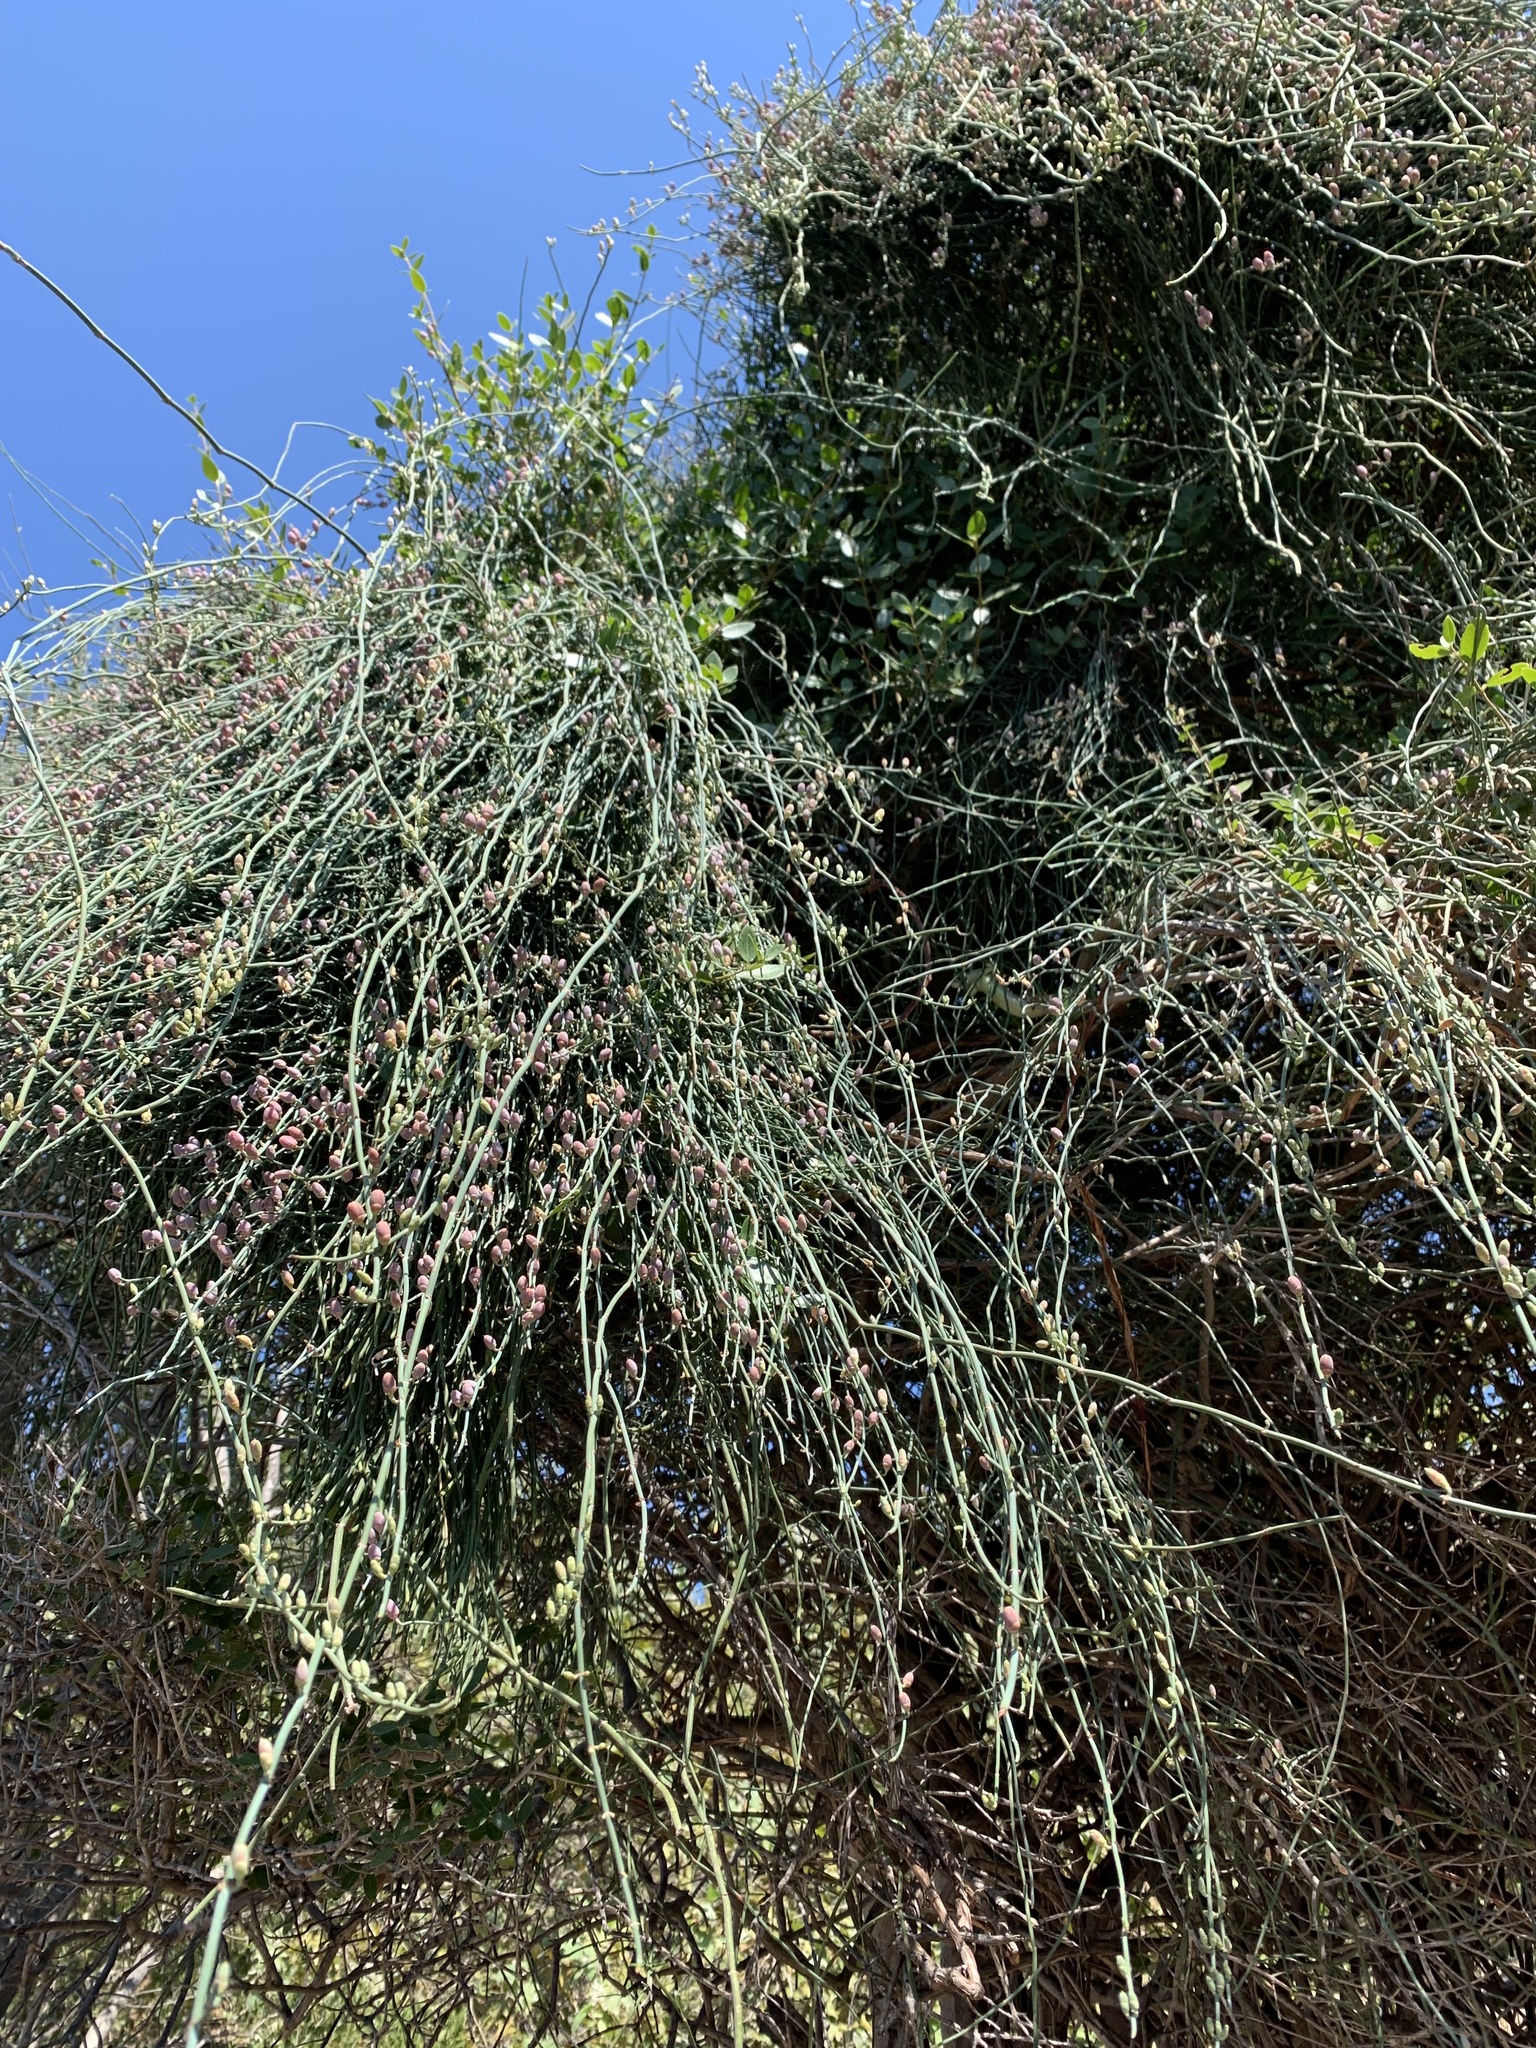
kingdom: Plantae
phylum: Tracheophyta
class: Gnetopsida
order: Ephedrales
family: Ephedraceae
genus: Ephedra
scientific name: Ephedra foeminea
